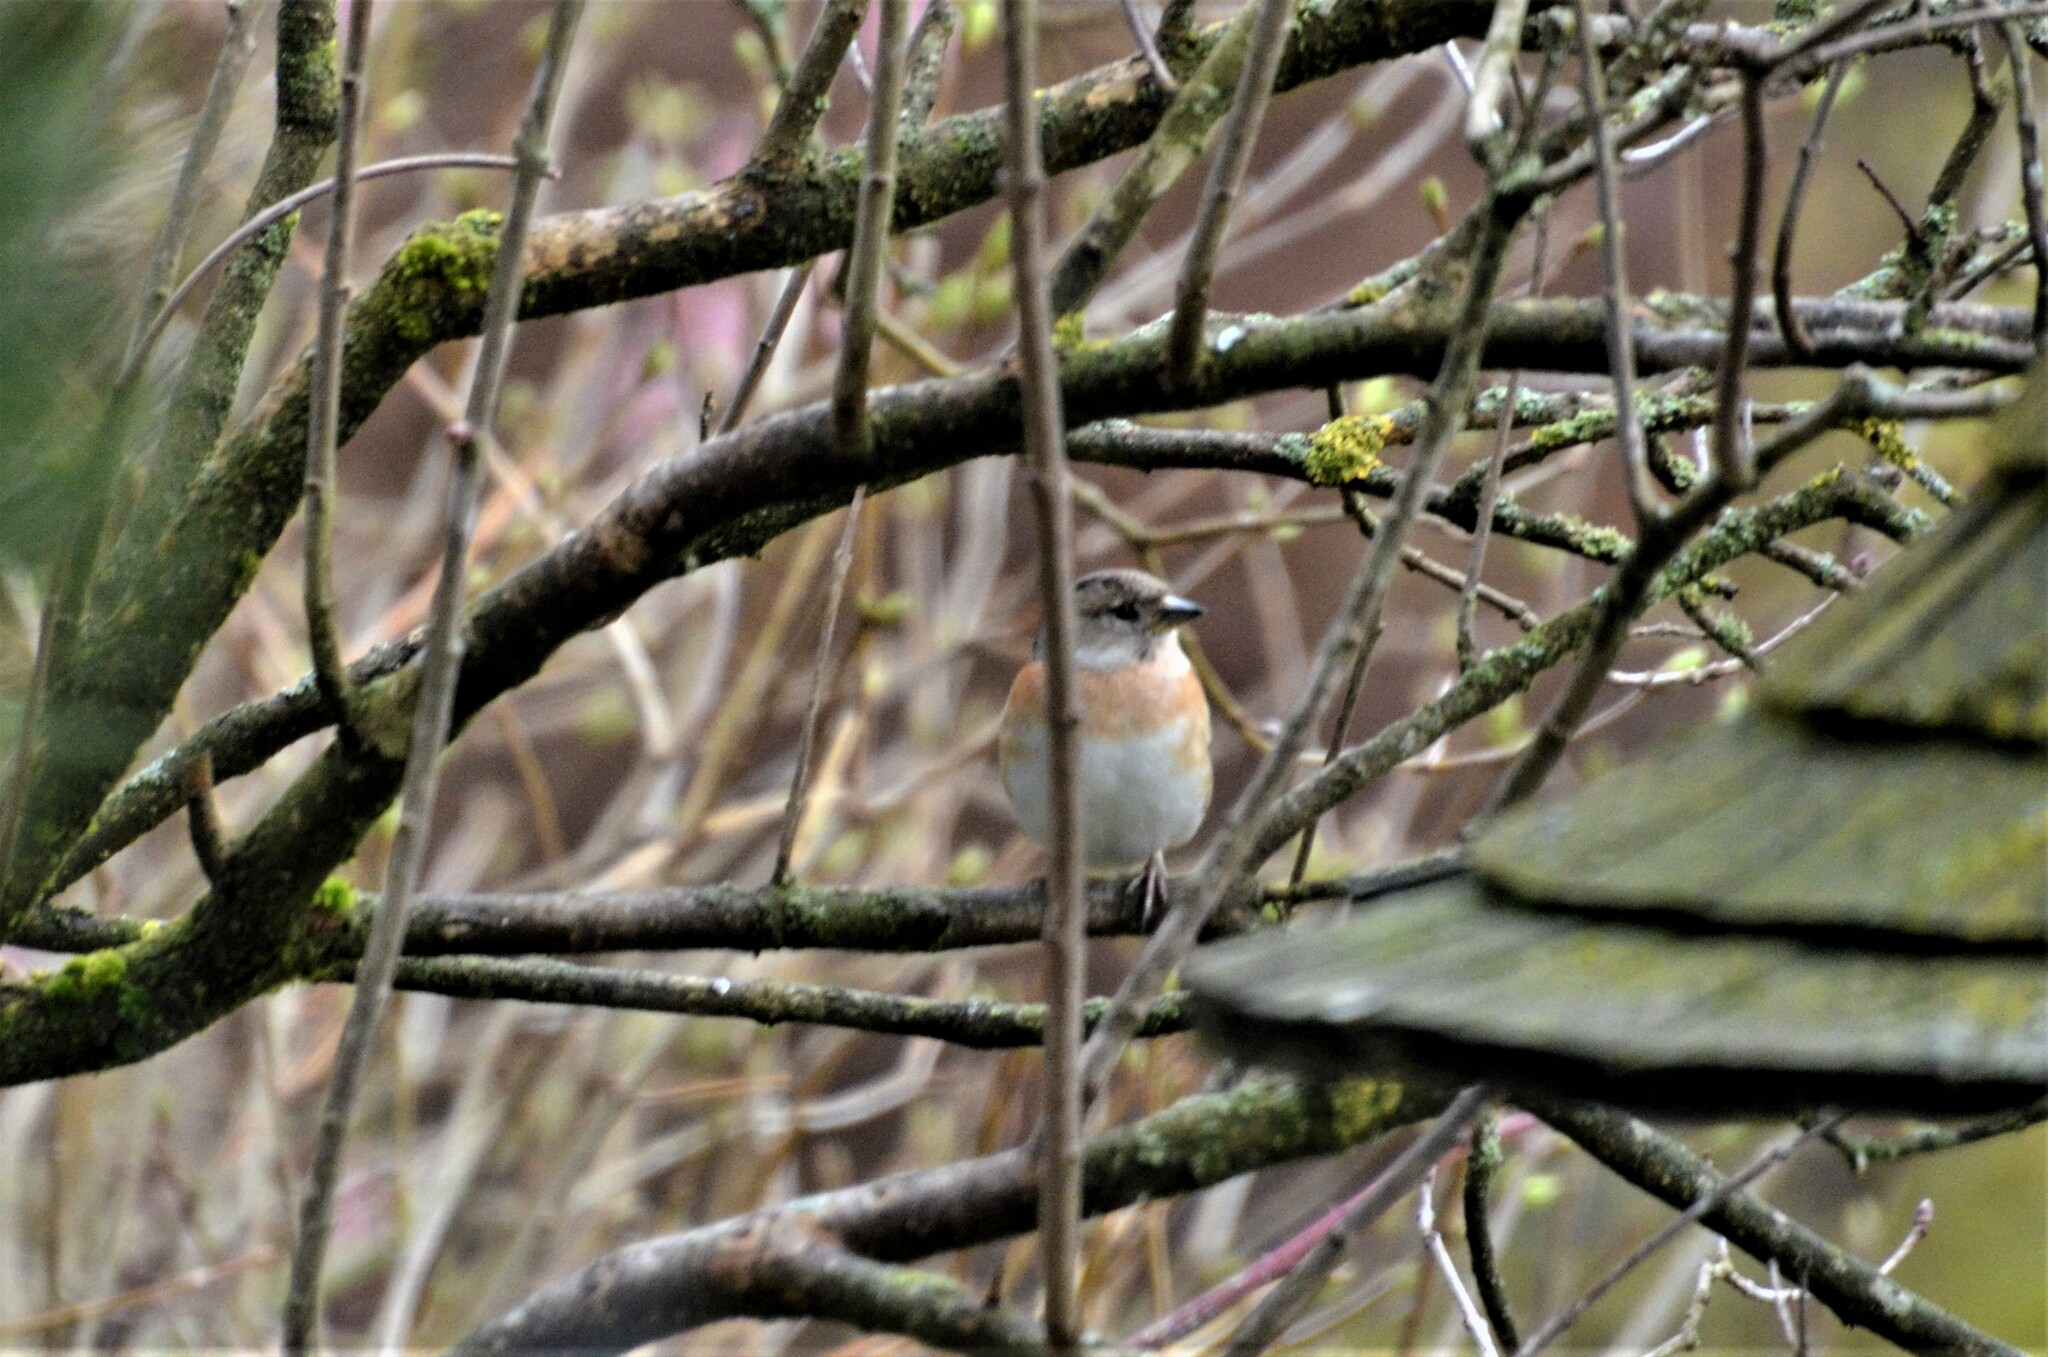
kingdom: Animalia
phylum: Chordata
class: Aves
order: Passeriformes
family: Fringillidae
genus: Fringilla
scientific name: Fringilla montifringilla
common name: Brambling
